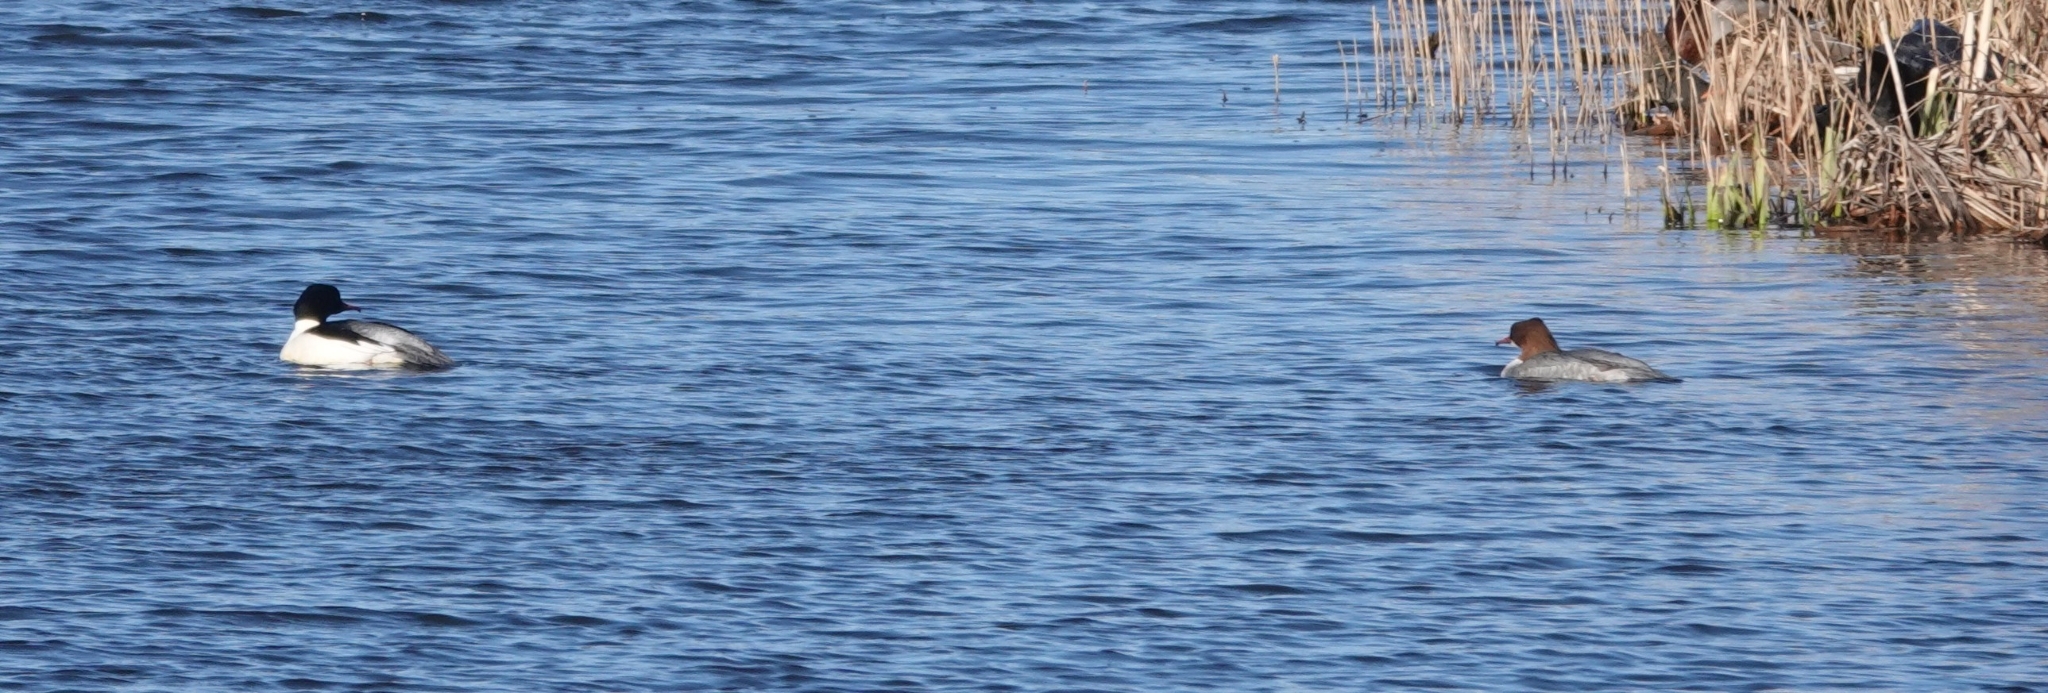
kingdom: Animalia
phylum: Chordata
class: Aves
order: Anseriformes
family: Anatidae
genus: Mergus
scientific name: Mergus merganser
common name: Common merganser
